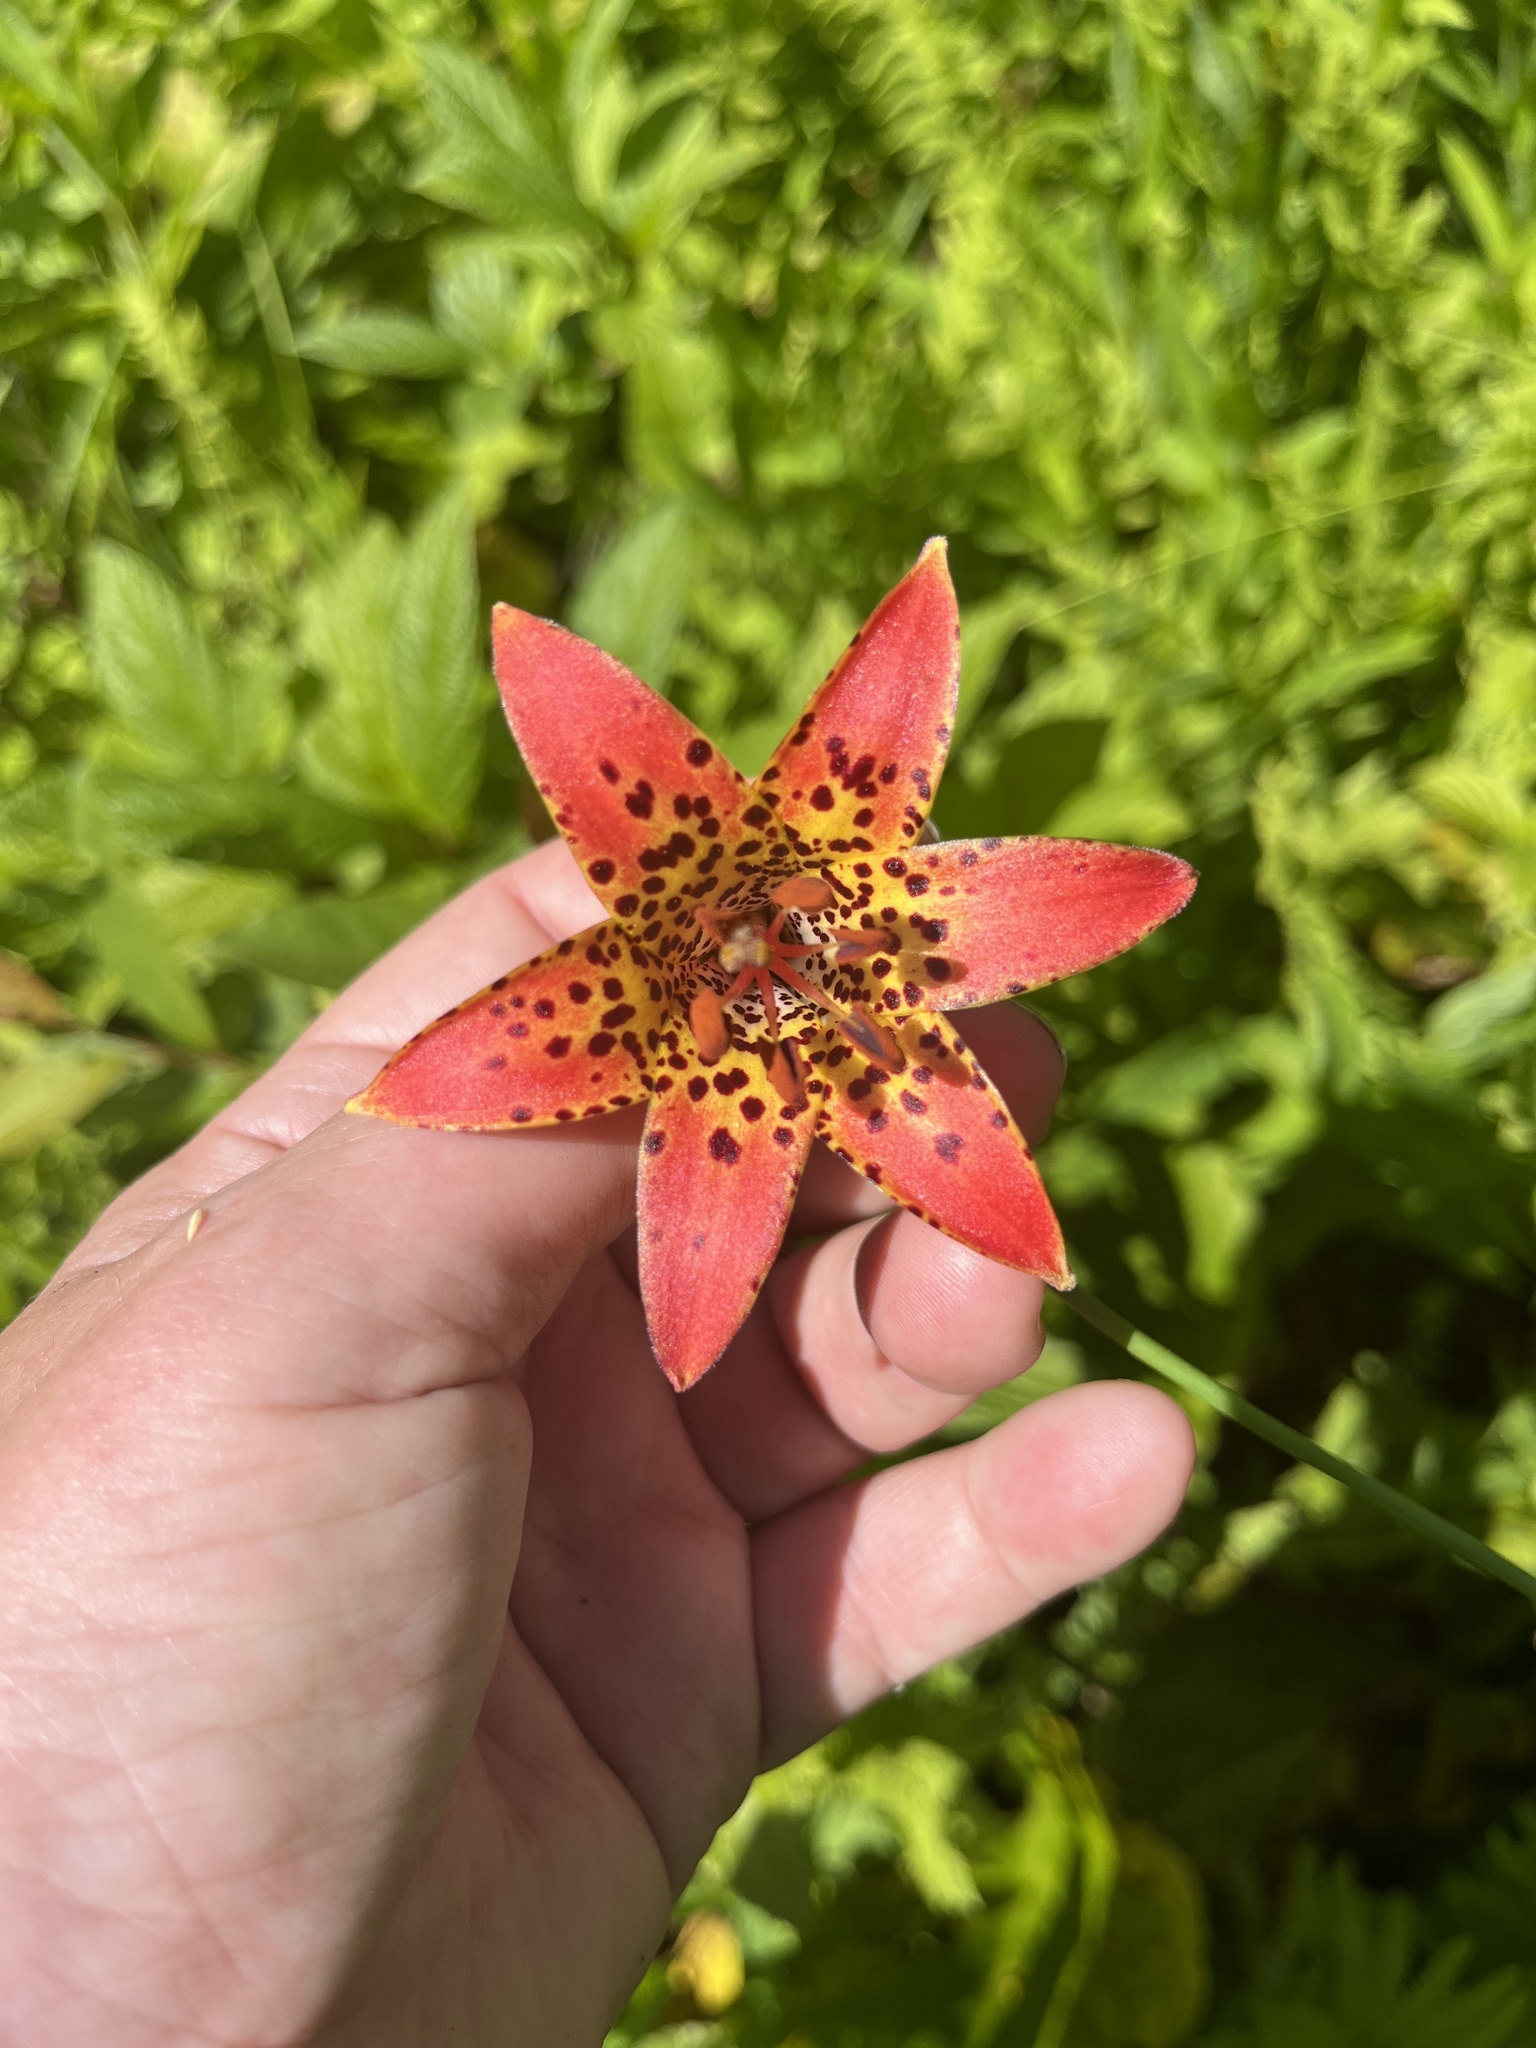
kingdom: Plantae
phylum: Tracheophyta
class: Liliopsida
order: Liliales
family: Liliaceae
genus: Lilium
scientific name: Lilium canadense
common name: Canada lily
